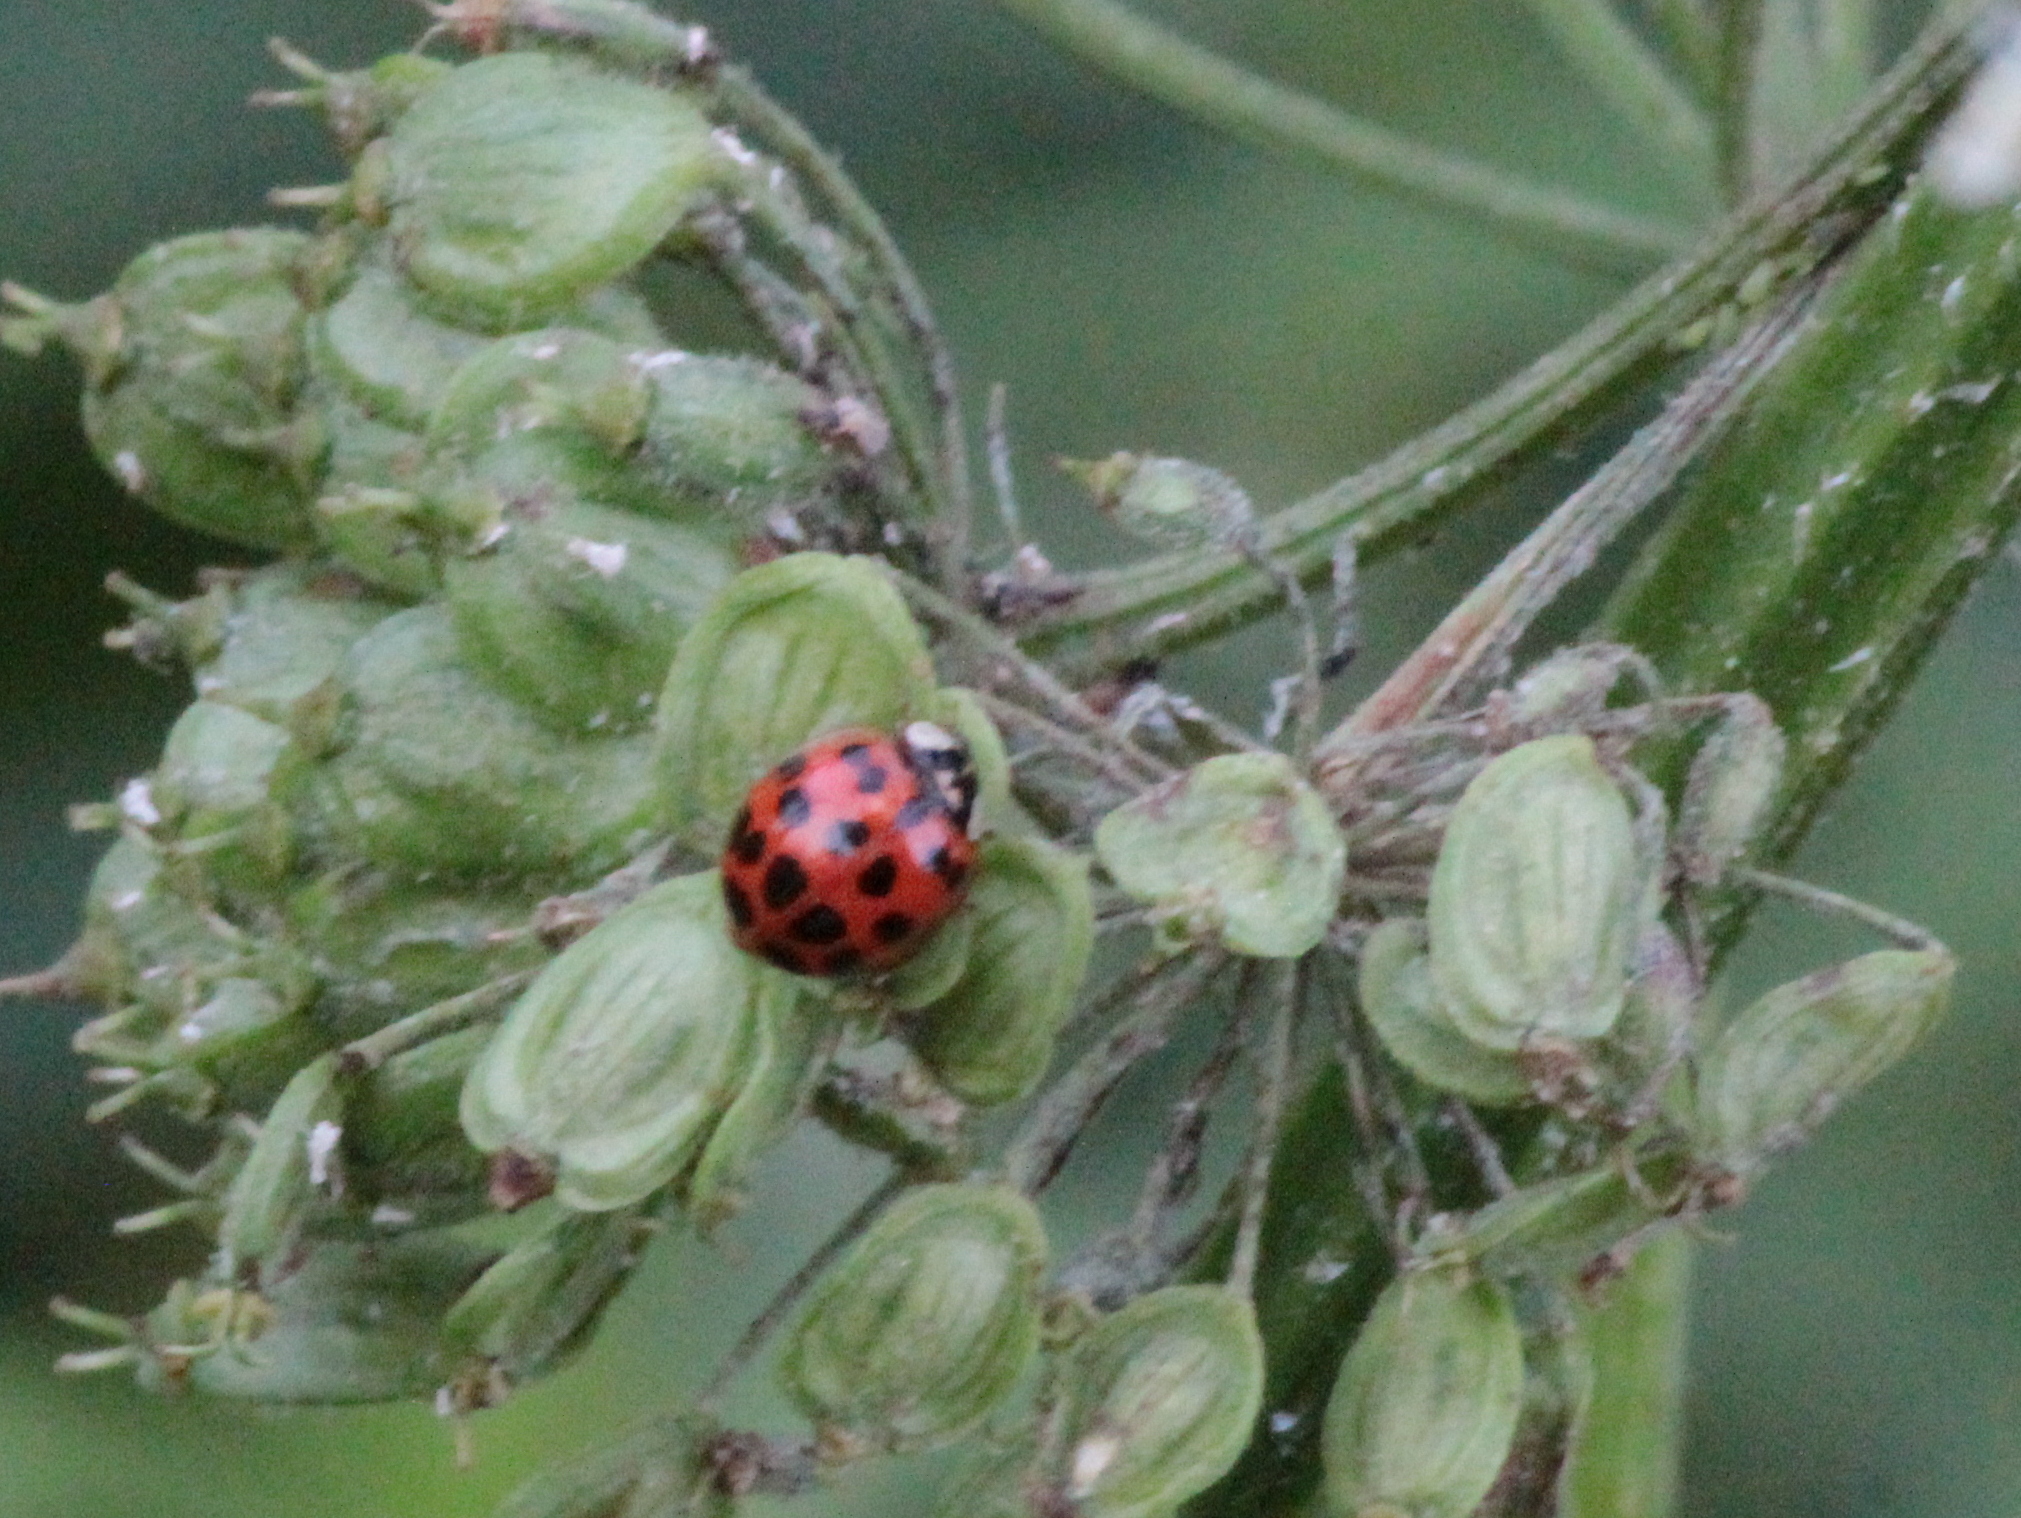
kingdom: Animalia
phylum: Arthropoda
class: Insecta
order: Coleoptera
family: Coccinellidae
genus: Harmonia
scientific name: Harmonia axyridis
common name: Harlequin ladybird
